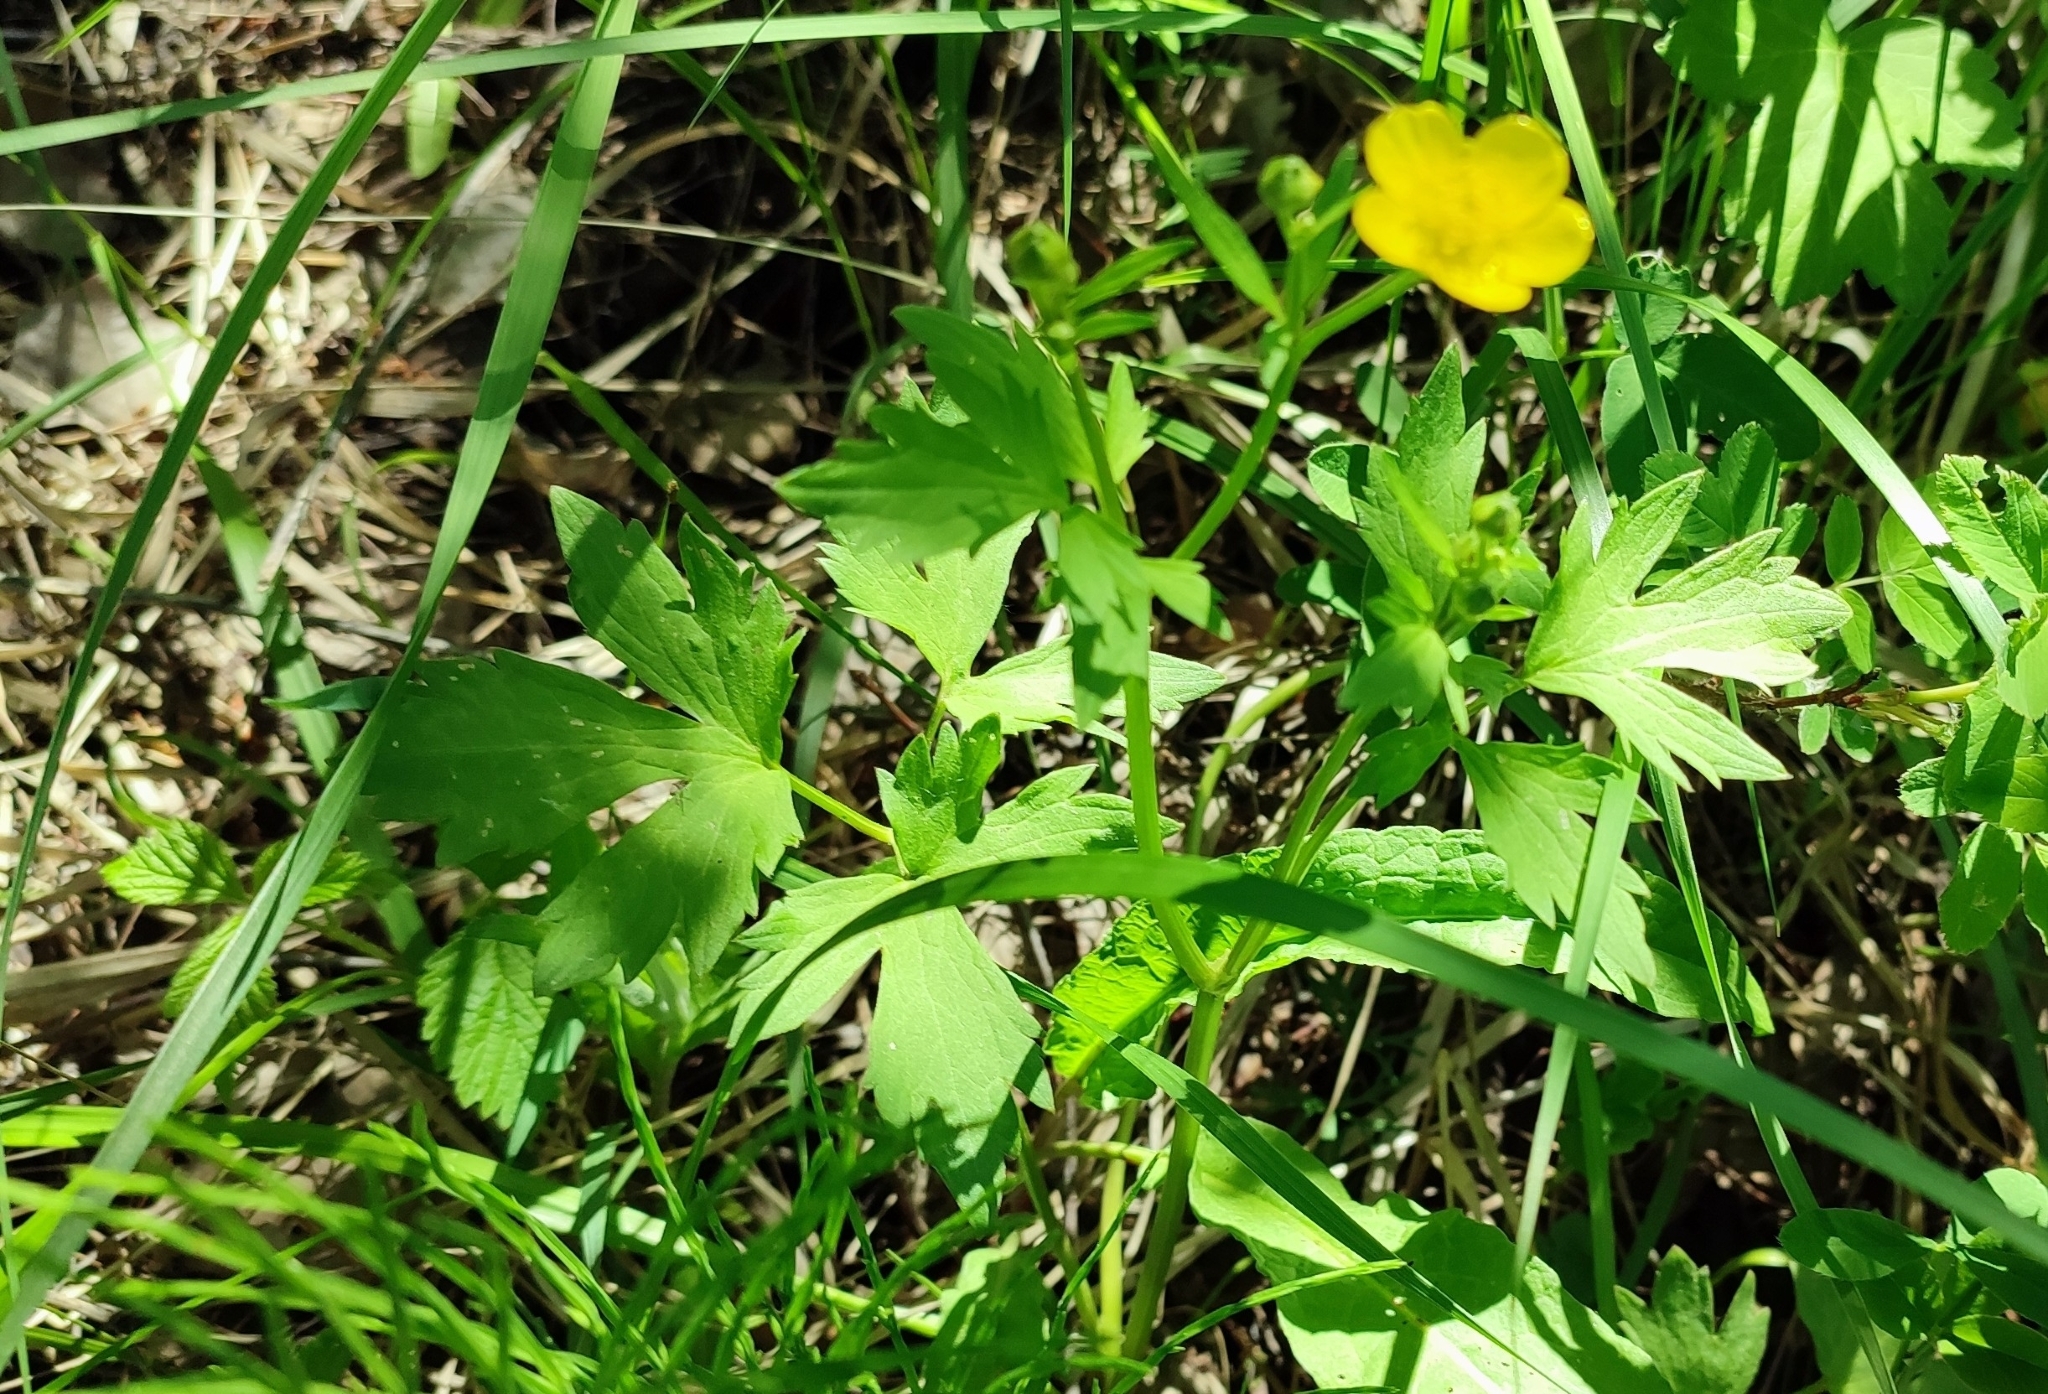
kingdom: Plantae
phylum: Tracheophyta
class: Magnoliopsida
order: Ranunculales
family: Ranunculaceae
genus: Ranunculus
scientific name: Ranunculus repens
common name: Creeping buttercup
